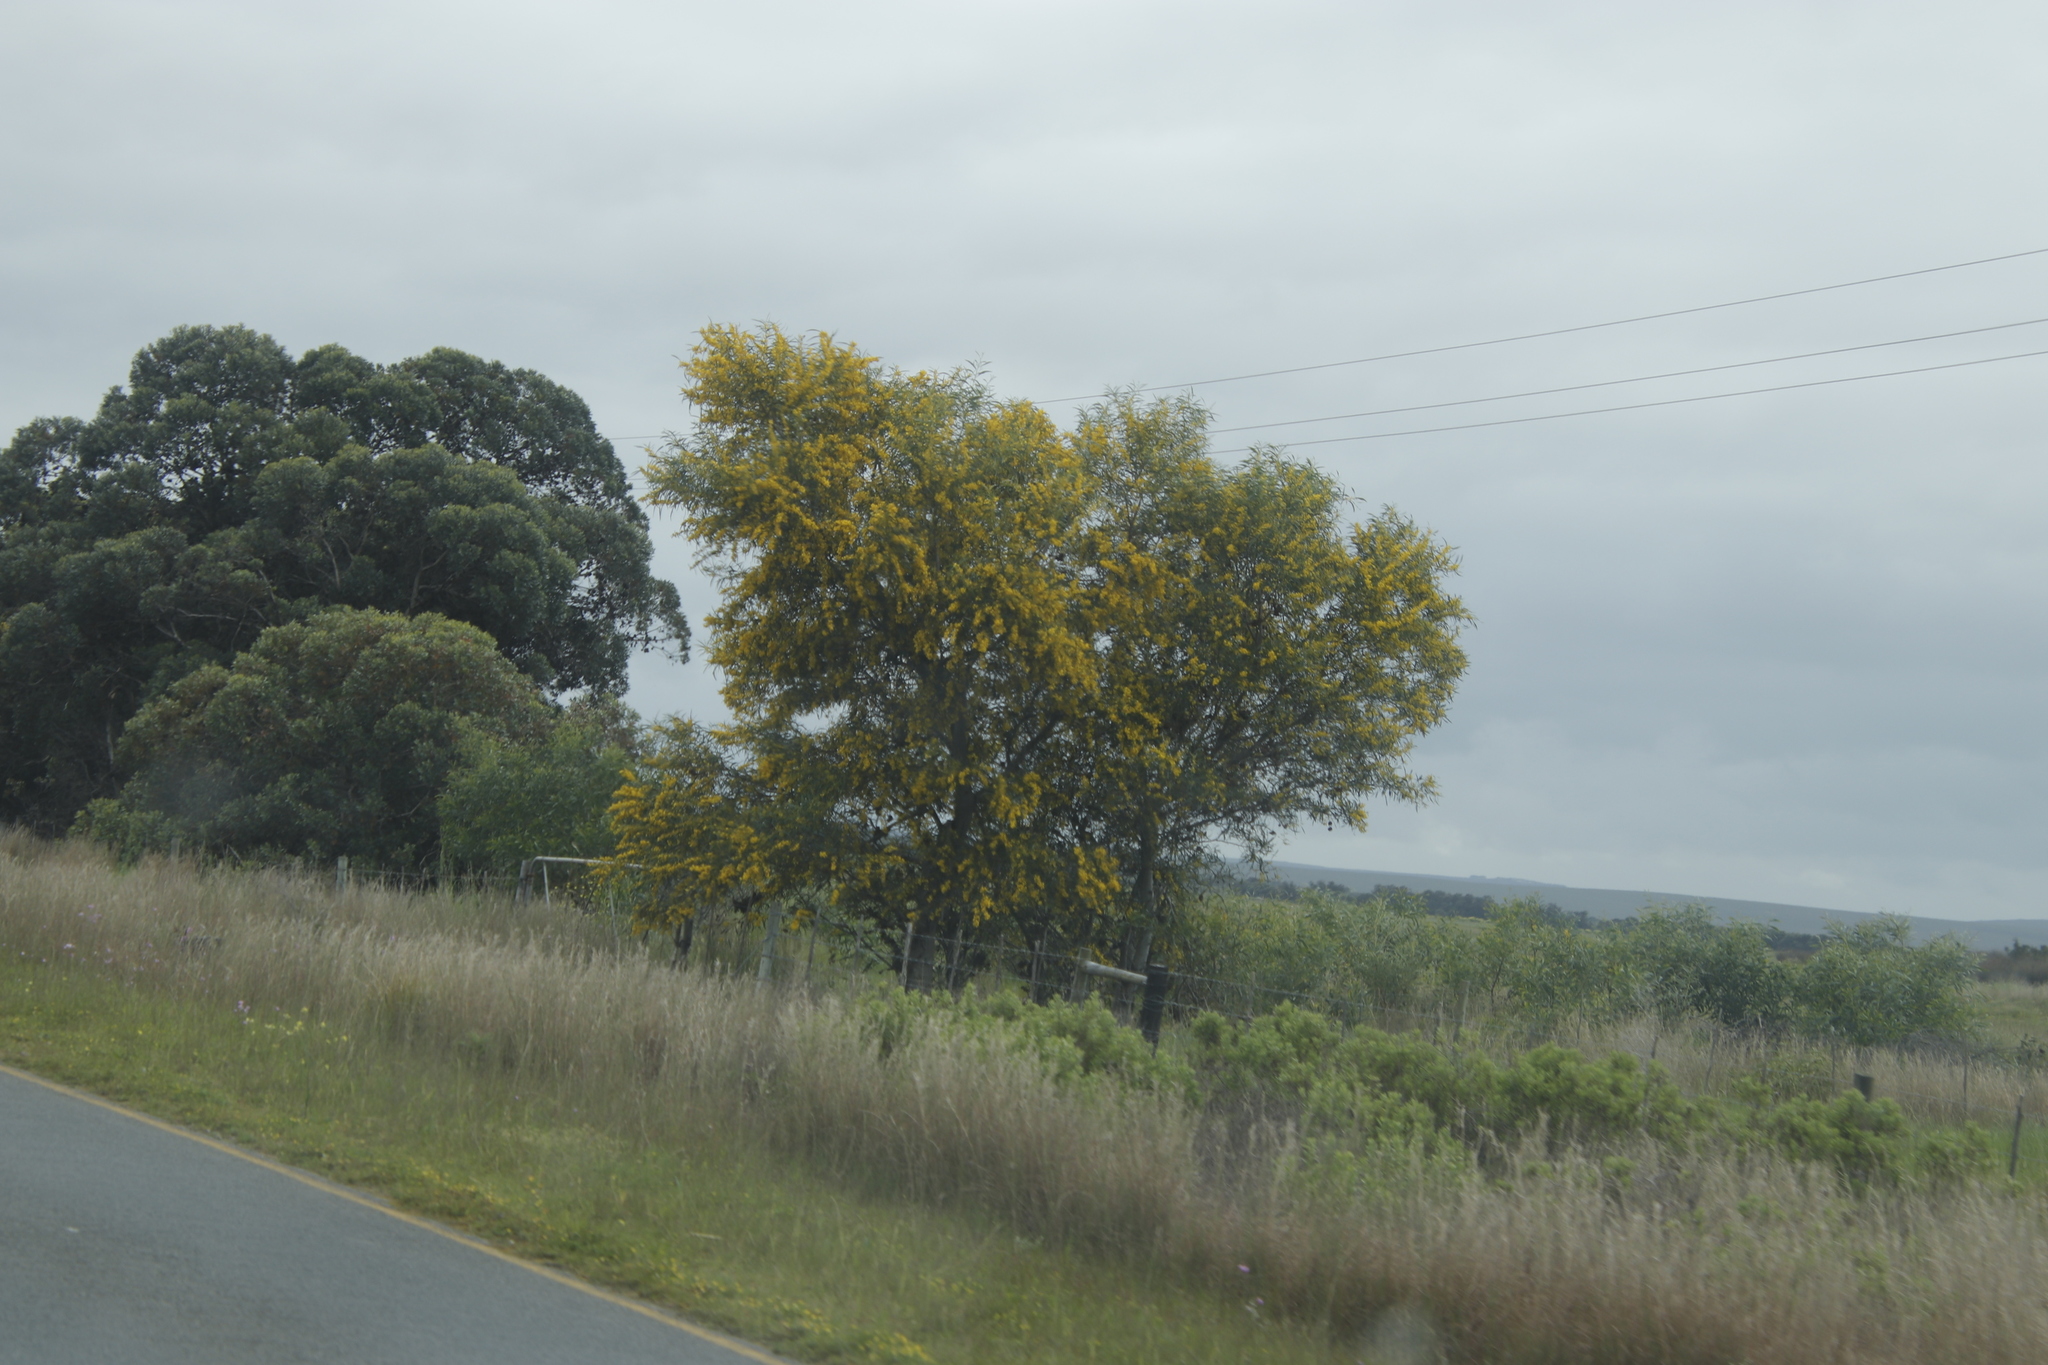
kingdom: Plantae
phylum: Tracheophyta
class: Magnoliopsida
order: Fabales
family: Fabaceae
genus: Acacia
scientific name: Acacia saligna
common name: Orange wattle
